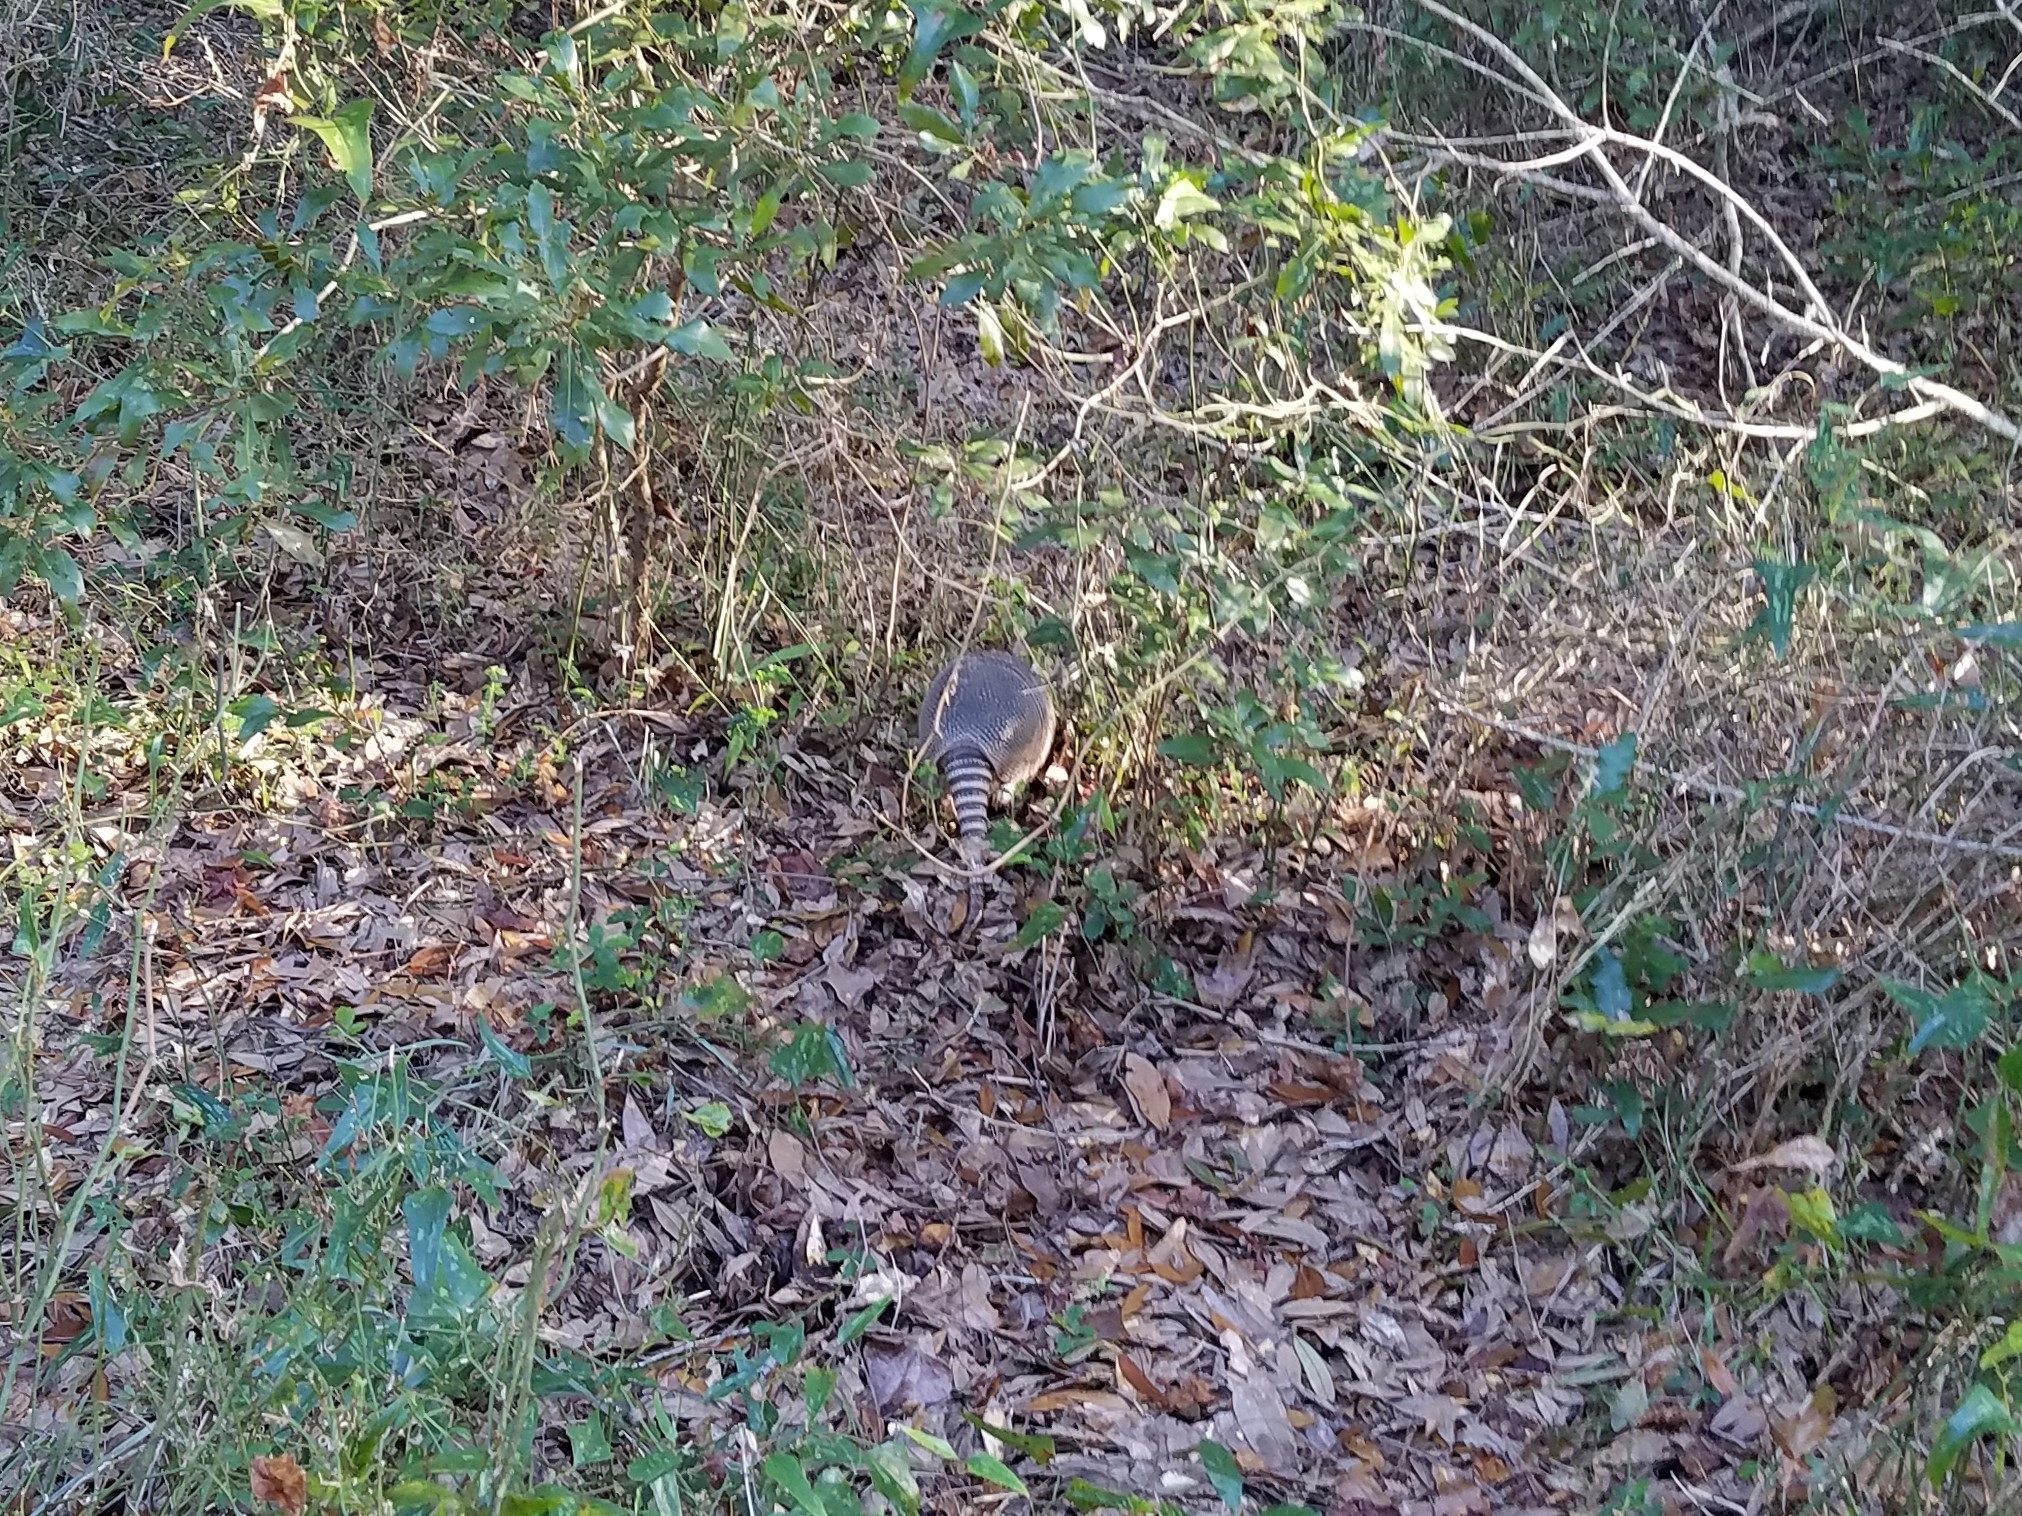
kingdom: Animalia
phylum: Chordata
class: Mammalia
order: Cingulata
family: Dasypodidae
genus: Dasypus
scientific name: Dasypus novemcinctus
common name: Nine-banded armadillo
